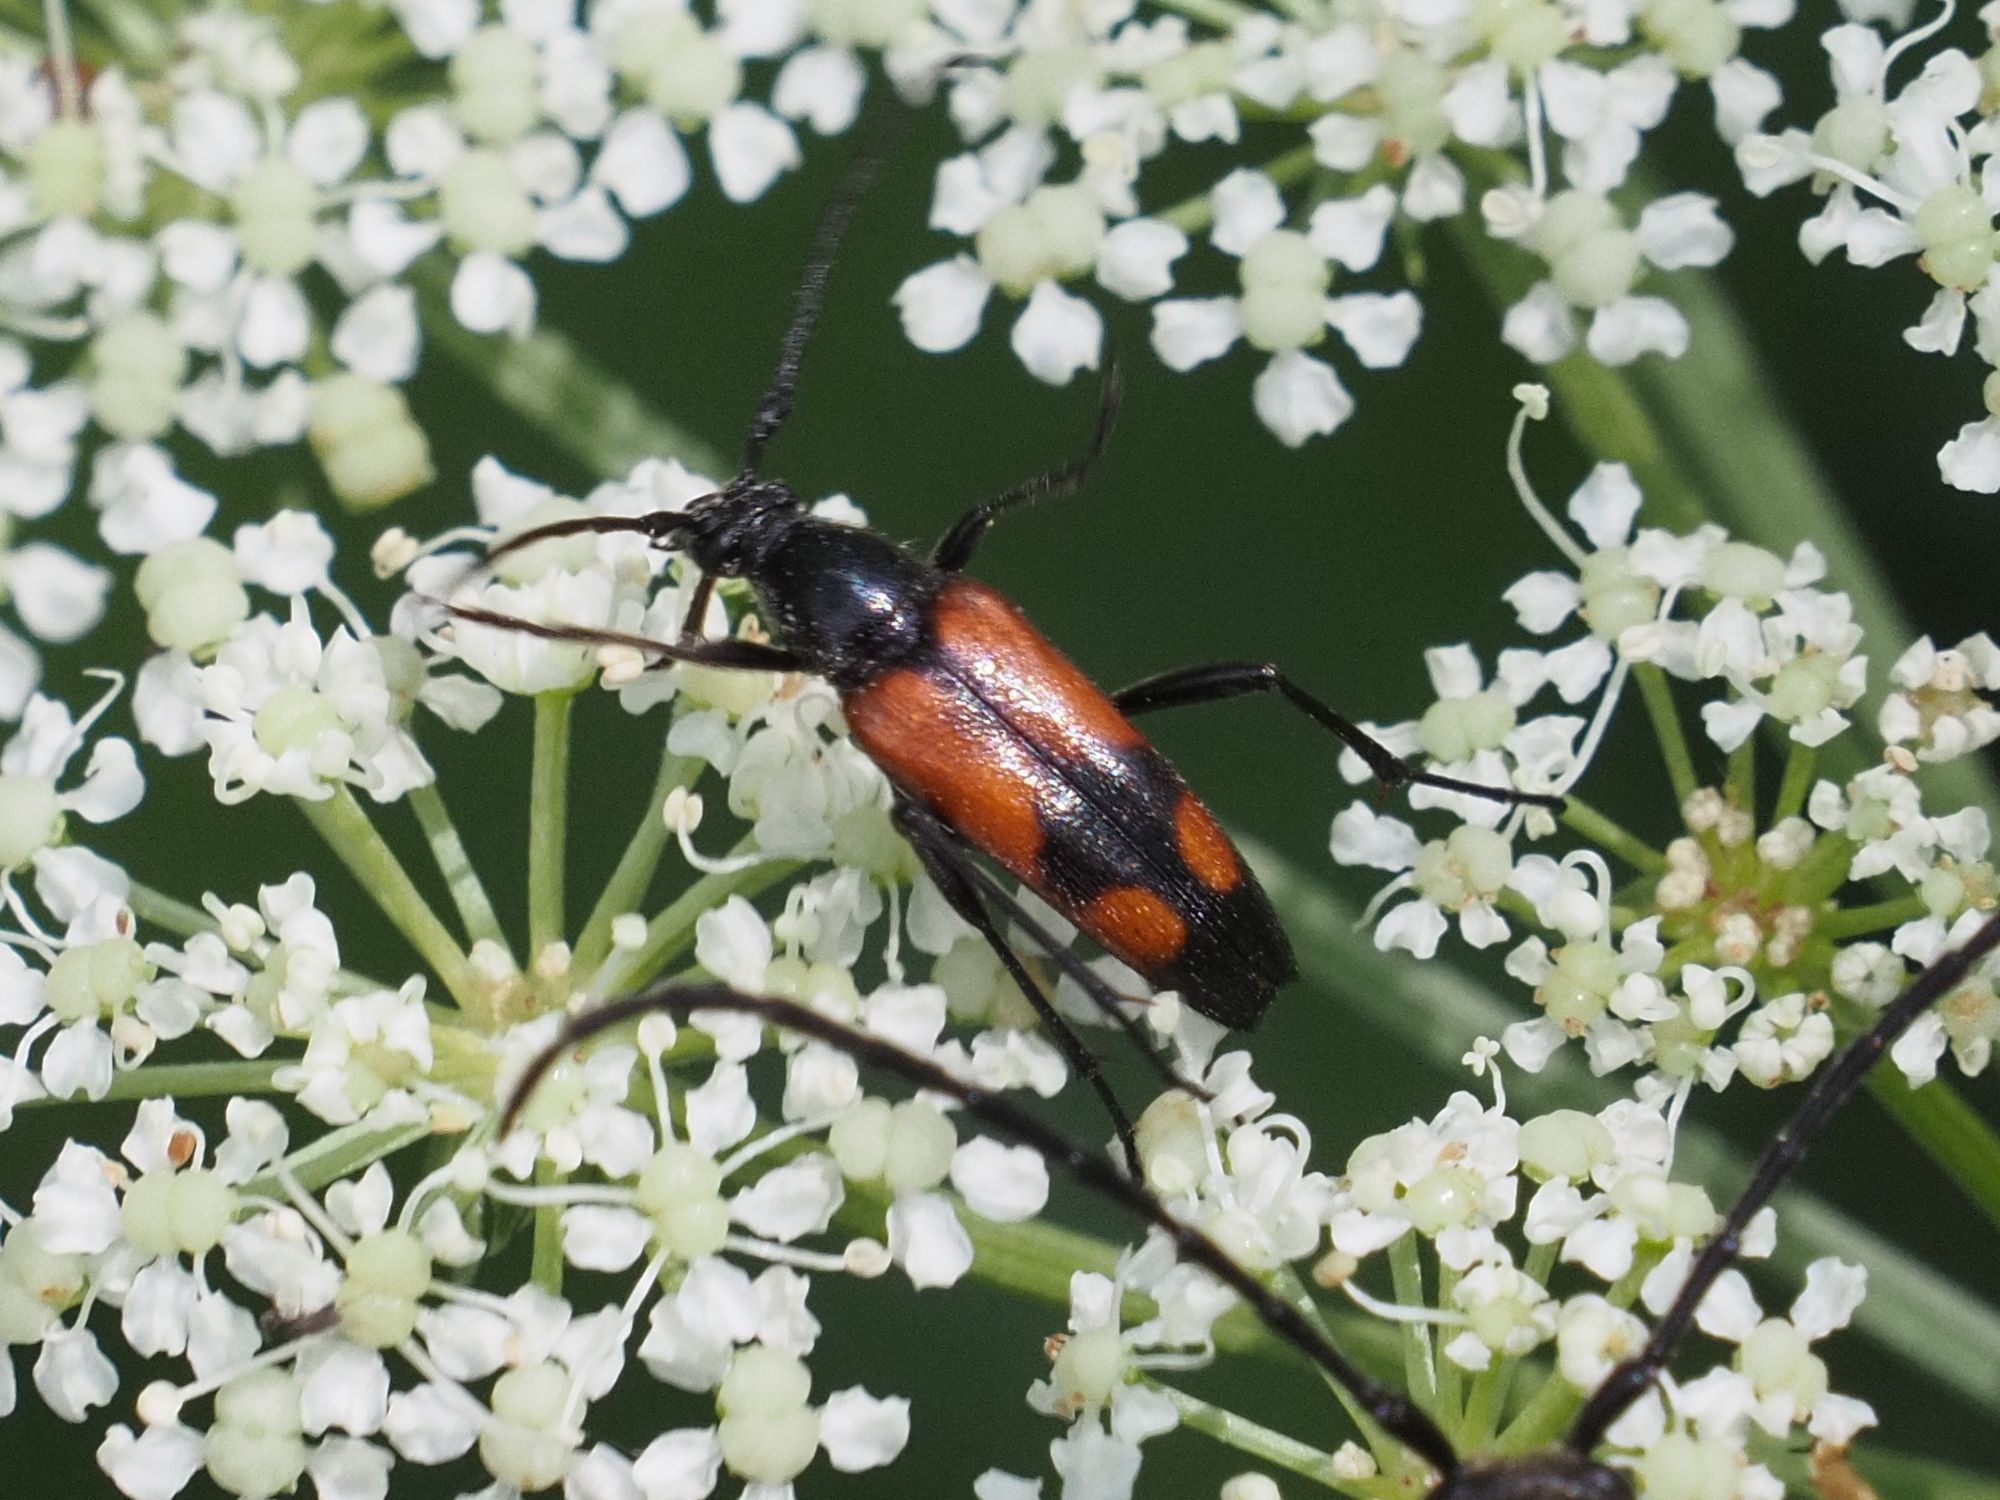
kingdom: Animalia
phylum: Arthropoda
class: Insecta
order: Coleoptera
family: Cerambycidae
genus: Stenurella
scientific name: Stenurella bifasciata
